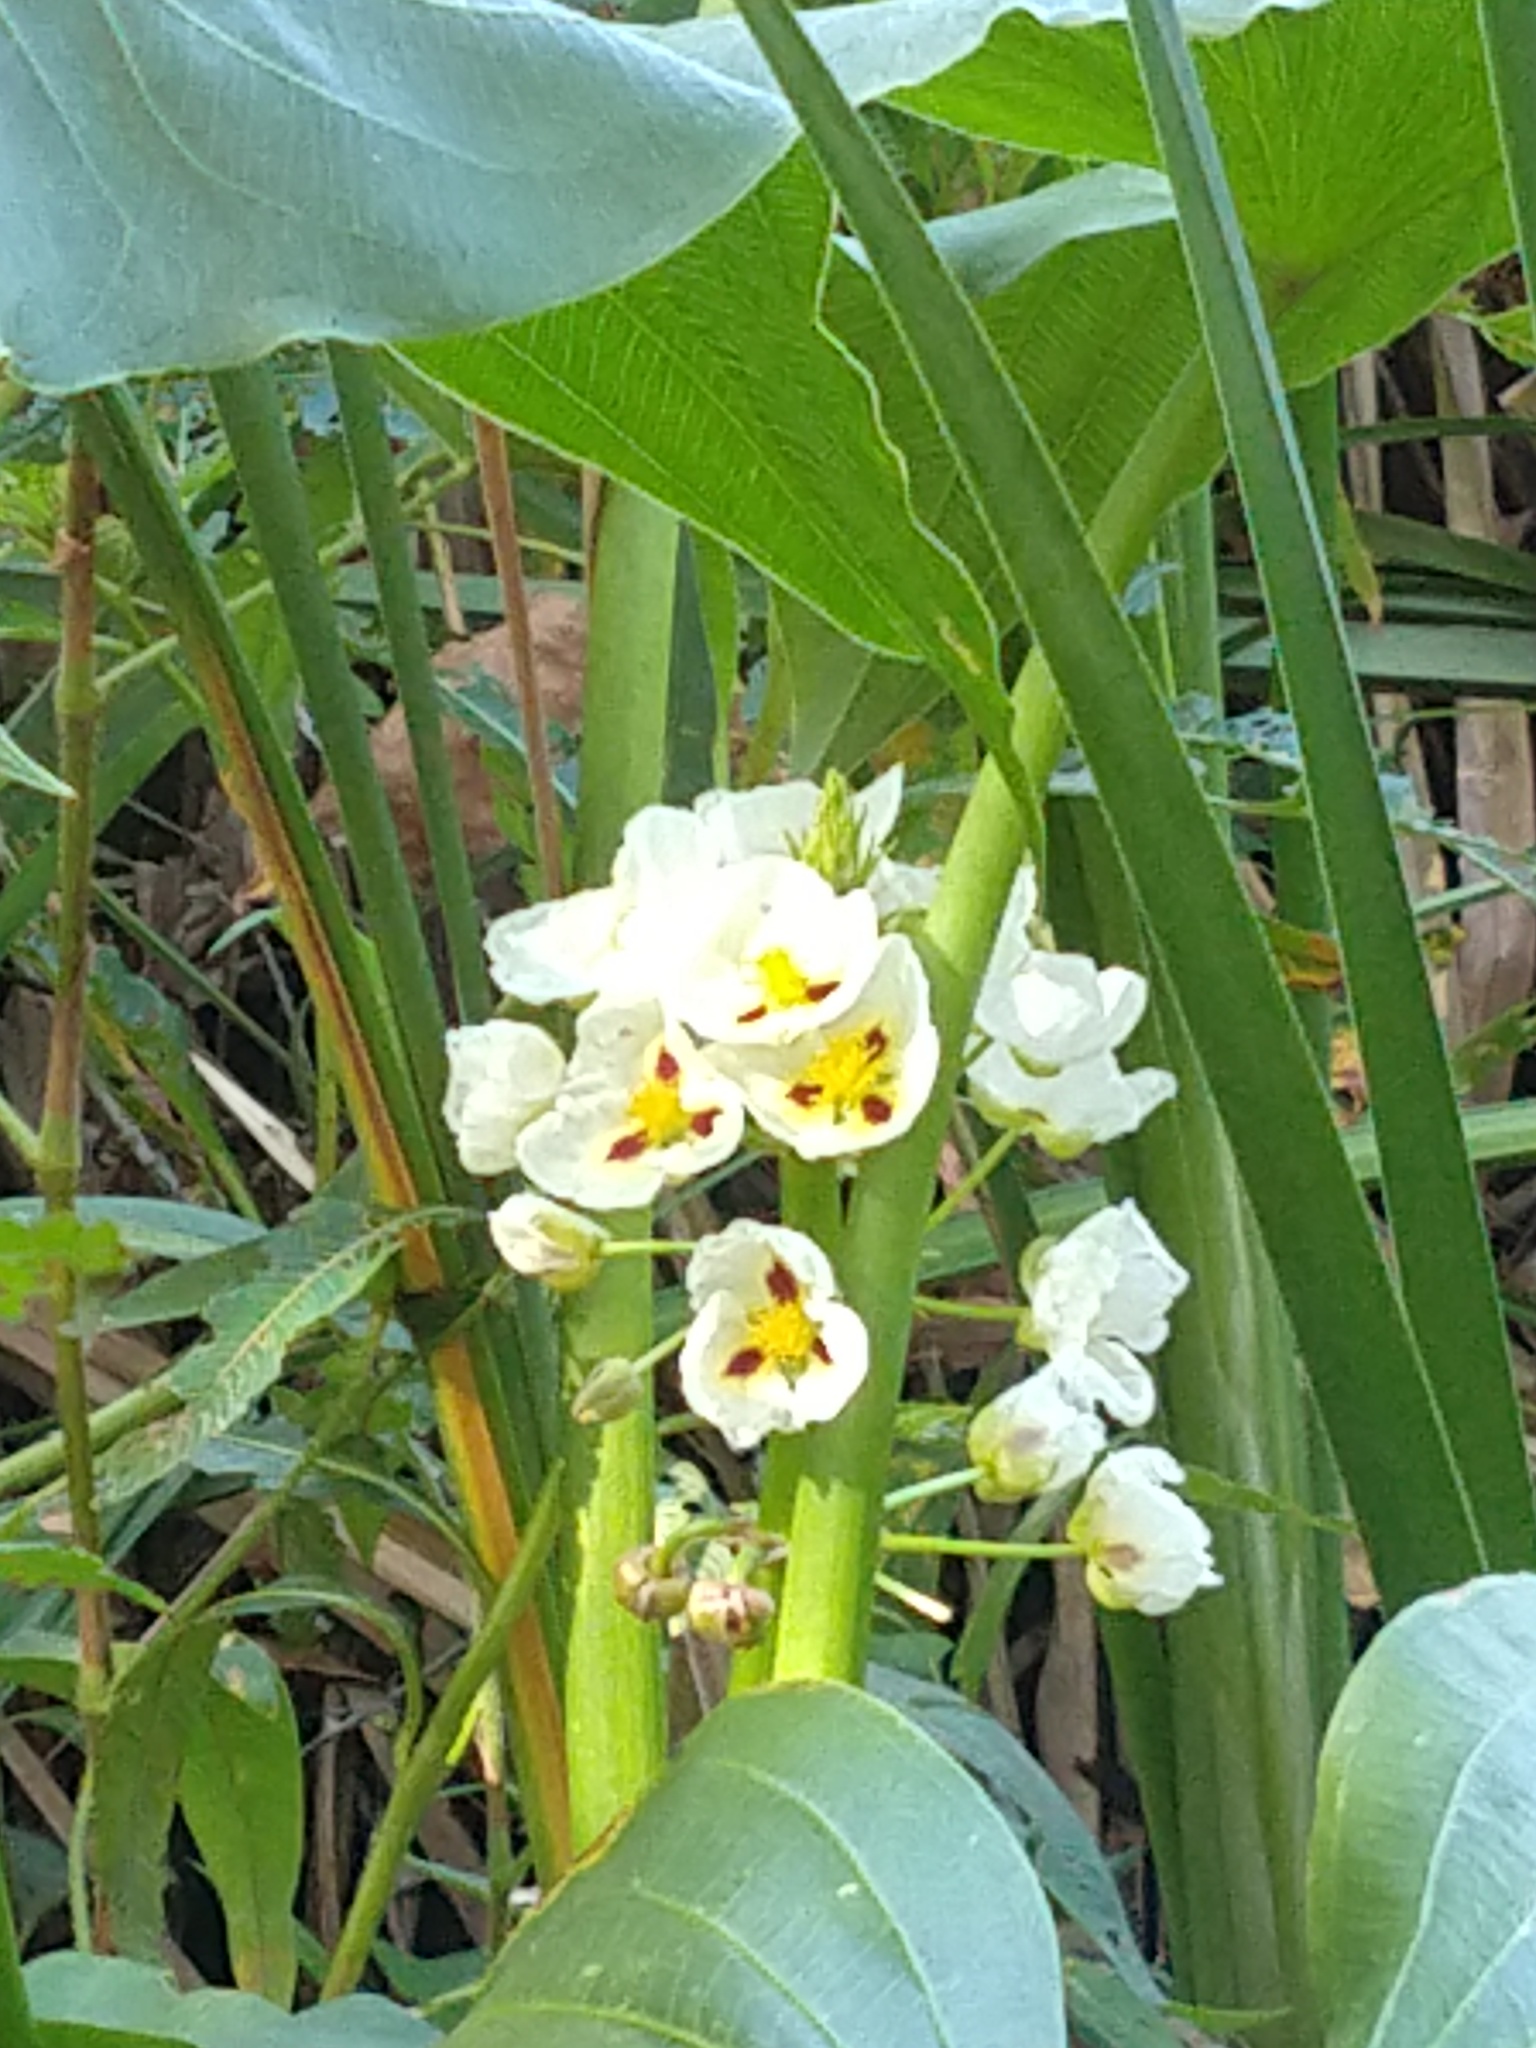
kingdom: Plantae
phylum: Tracheophyta
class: Liliopsida
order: Alismatales
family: Alismataceae
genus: Sagittaria
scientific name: Sagittaria montevidensis
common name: Giant arrowhead
